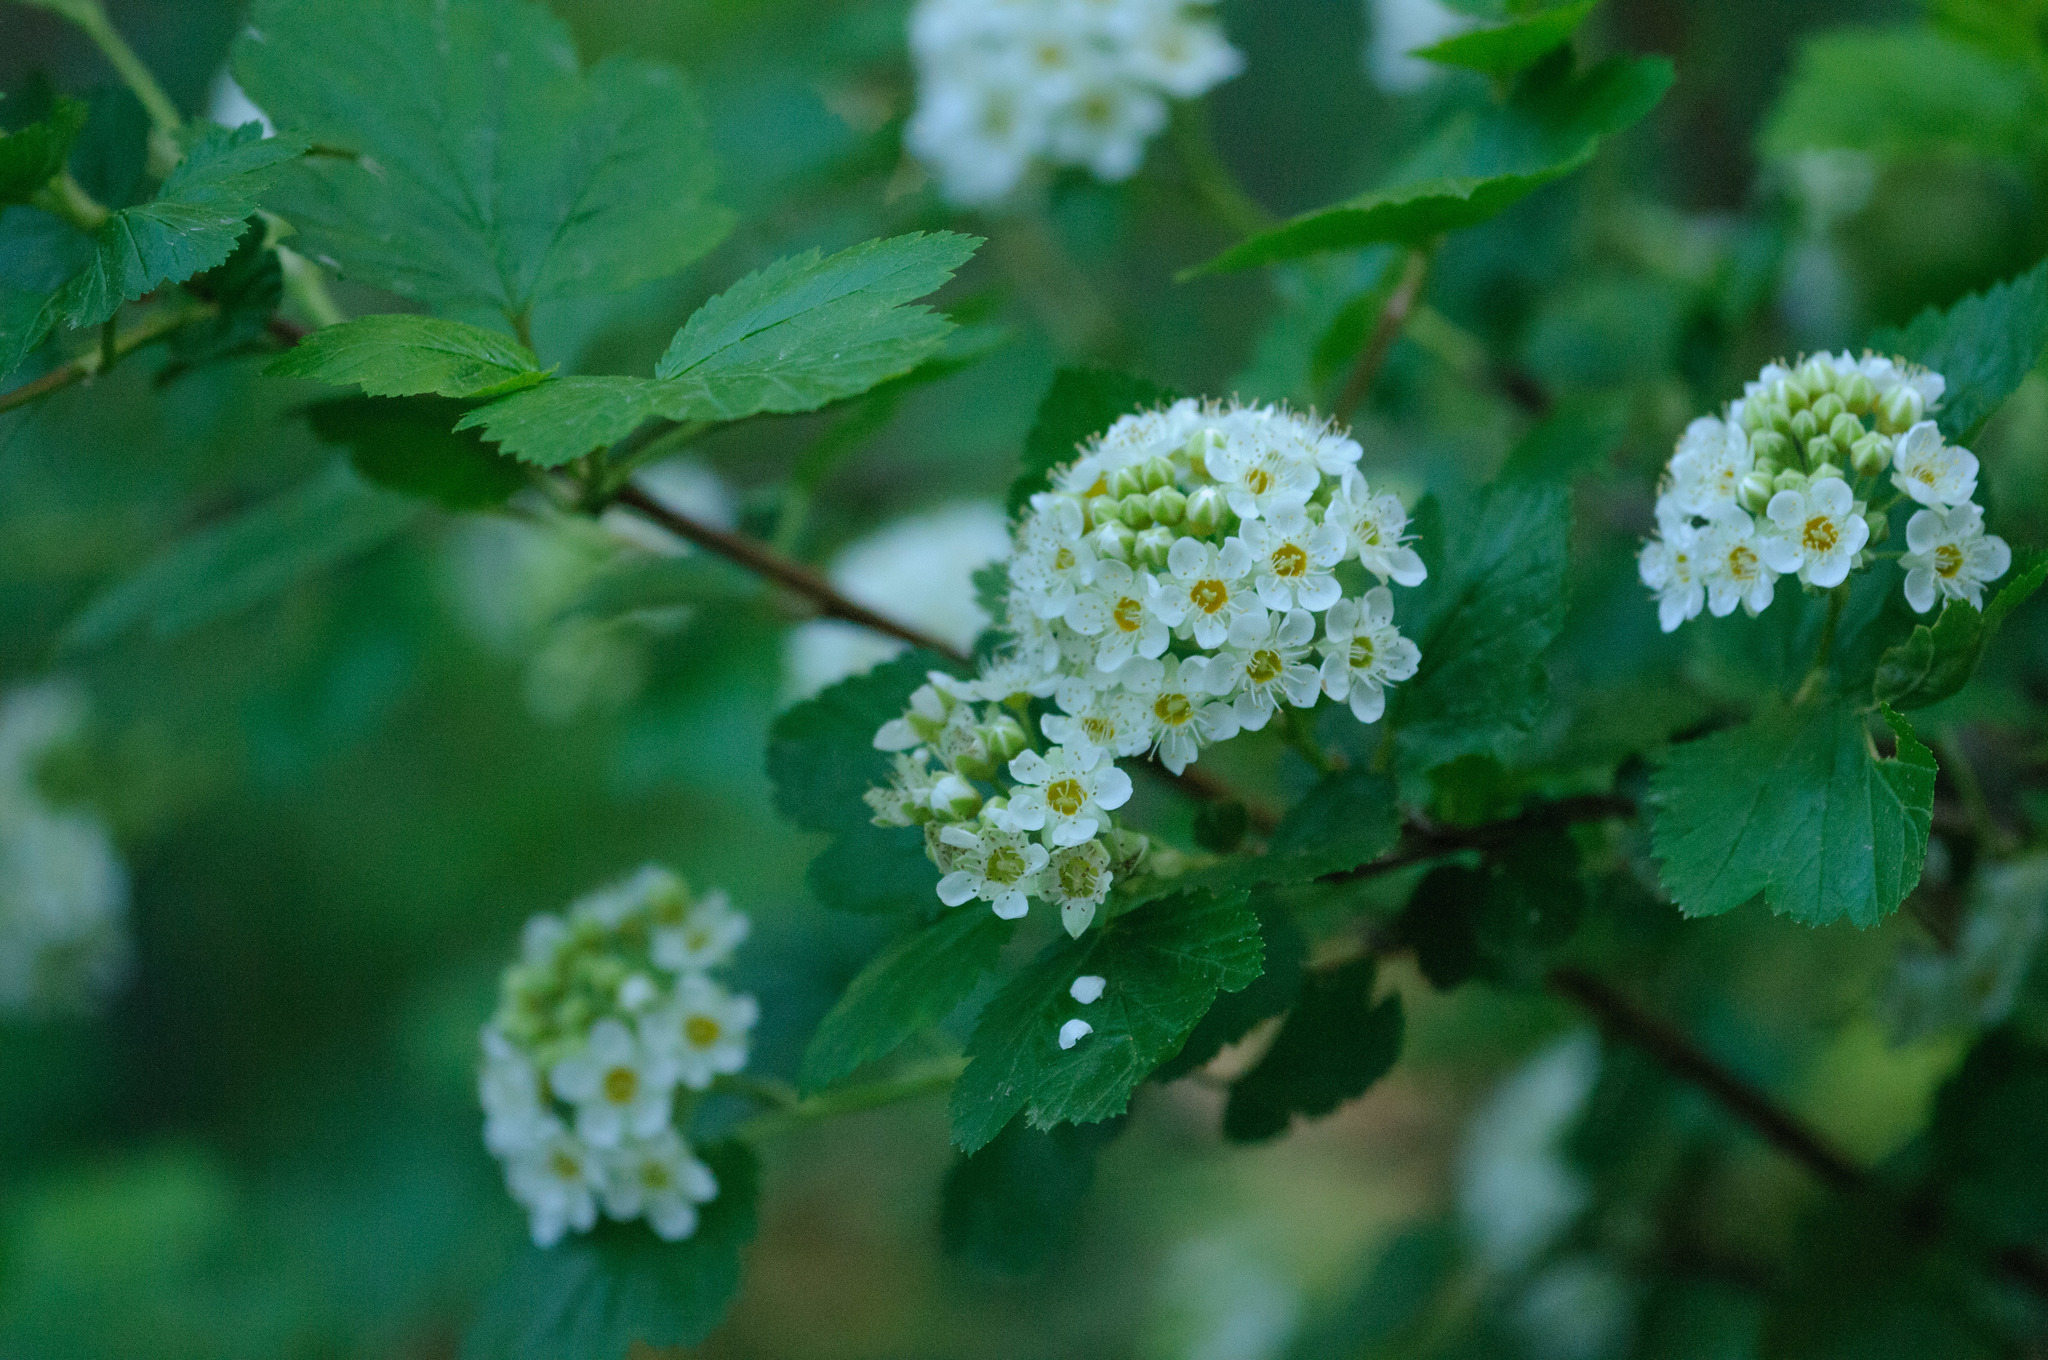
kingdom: Plantae
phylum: Tracheophyta
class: Magnoliopsida
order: Rosales
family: Rosaceae
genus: Physocarpus
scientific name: Physocarpus malvaceus
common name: Mallow ninebark
